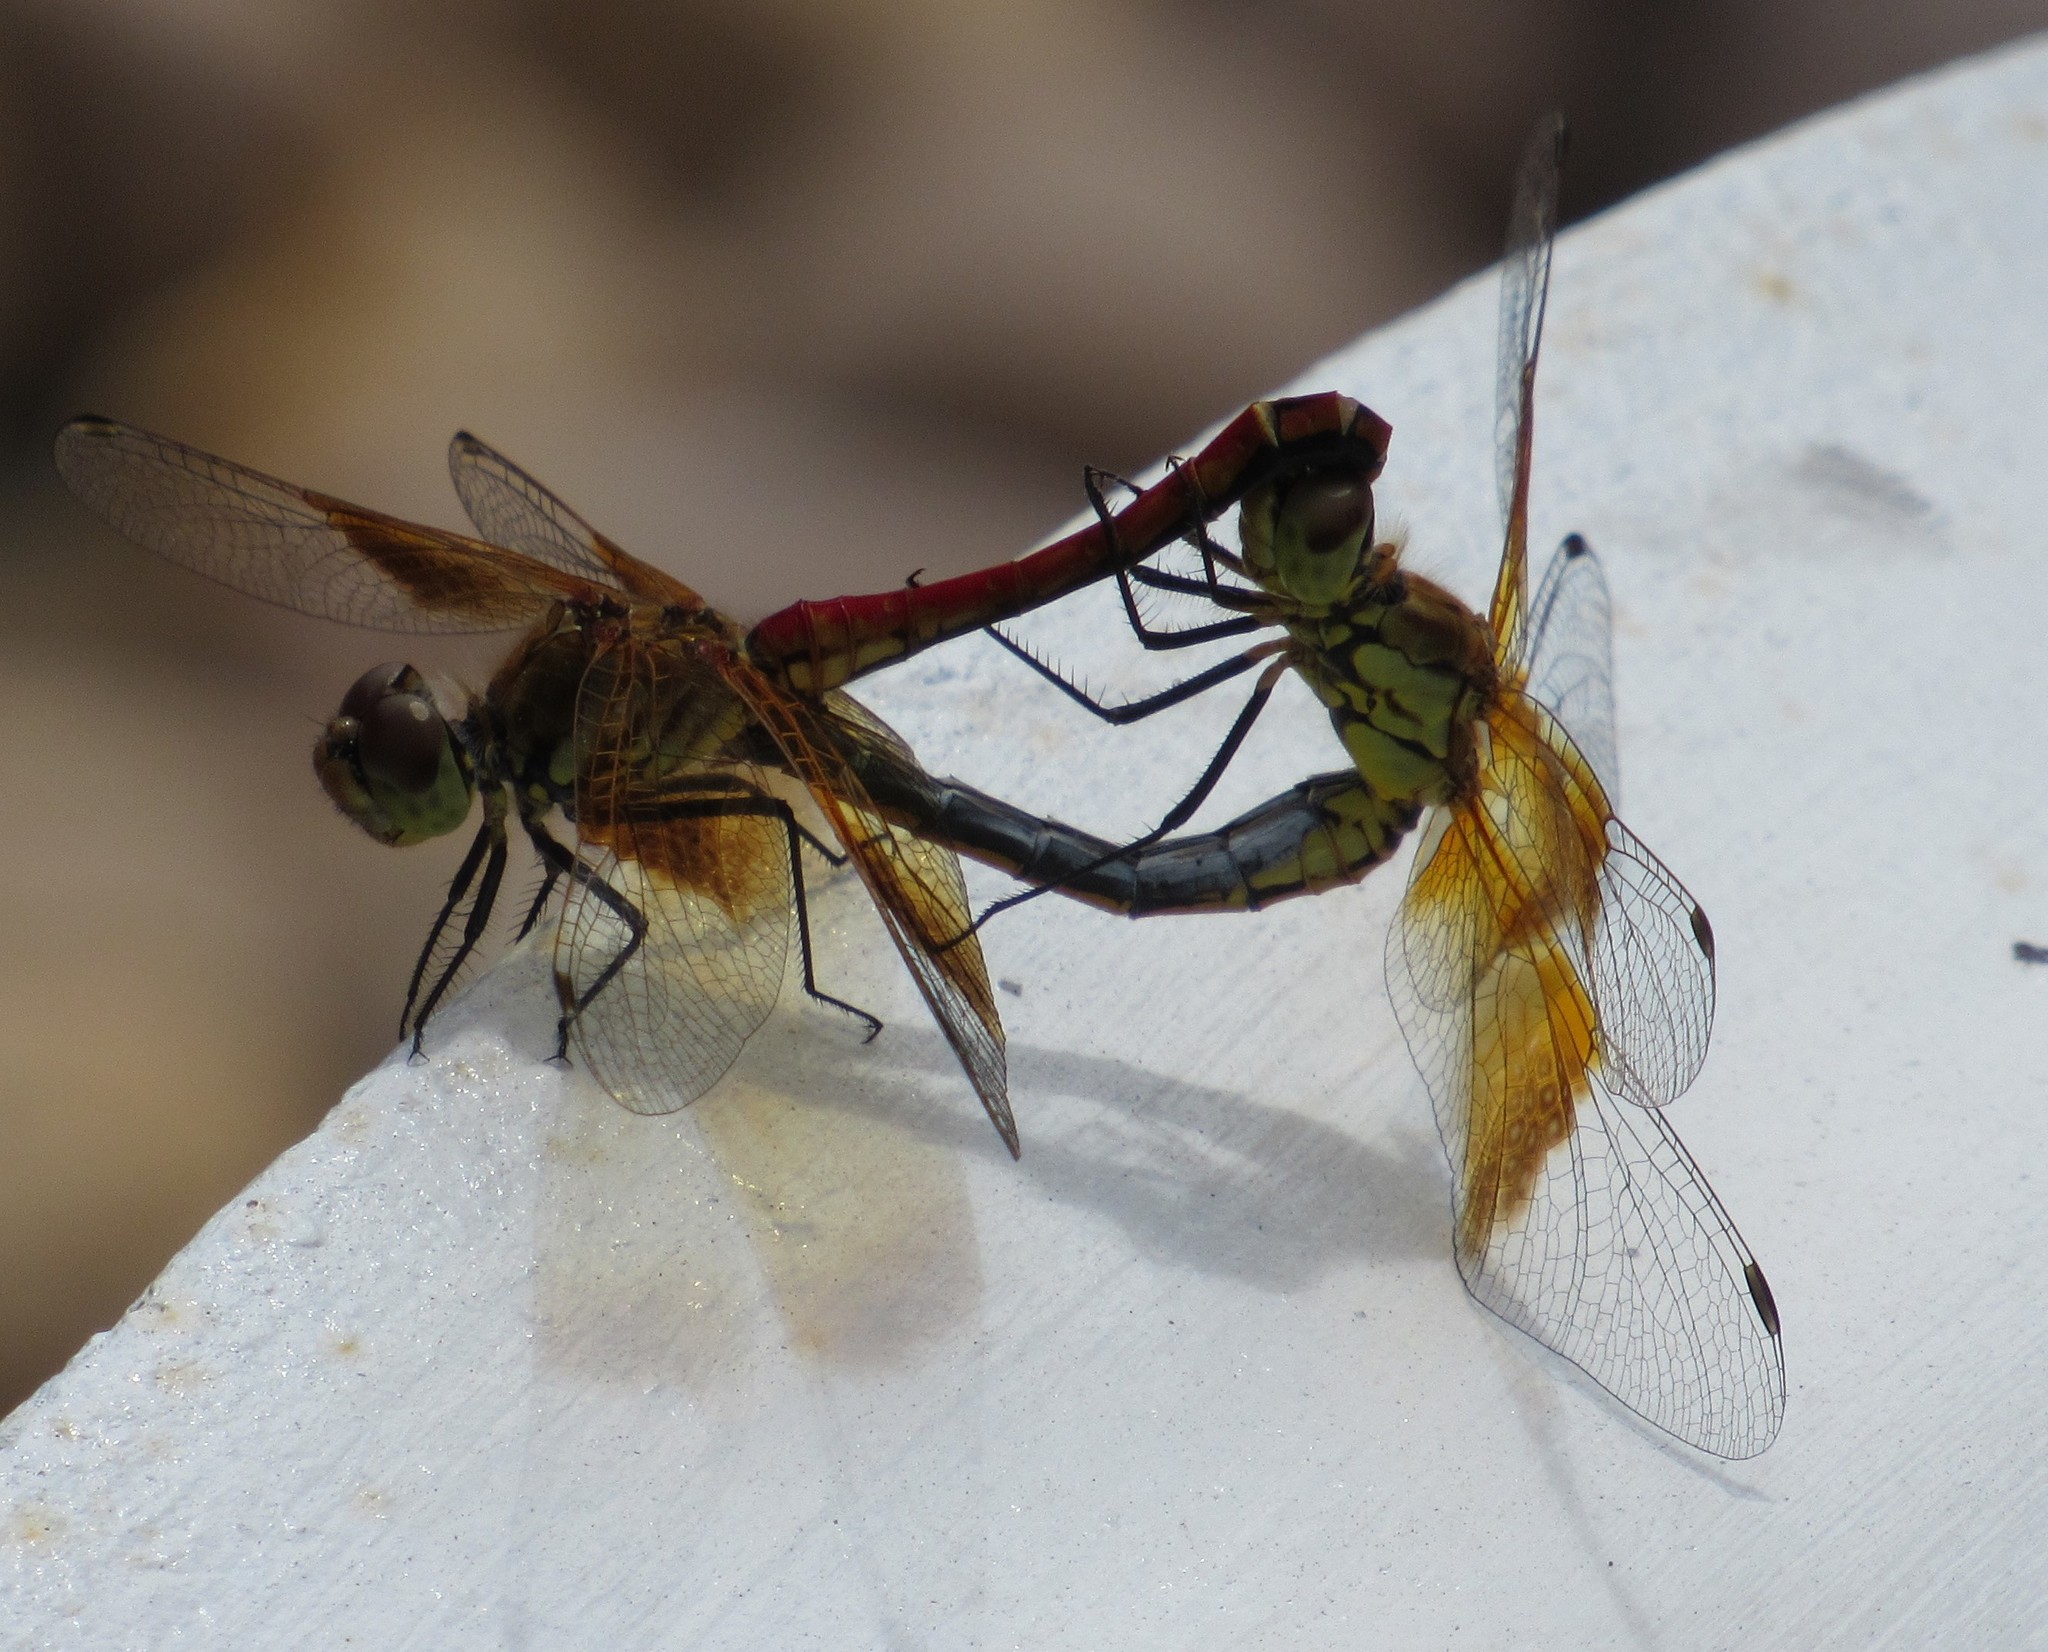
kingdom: Animalia
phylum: Arthropoda
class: Insecta
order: Odonata
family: Libellulidae
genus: Sympetrum
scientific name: Sympetrum semicinctum
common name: Band-winged meadowhawk
